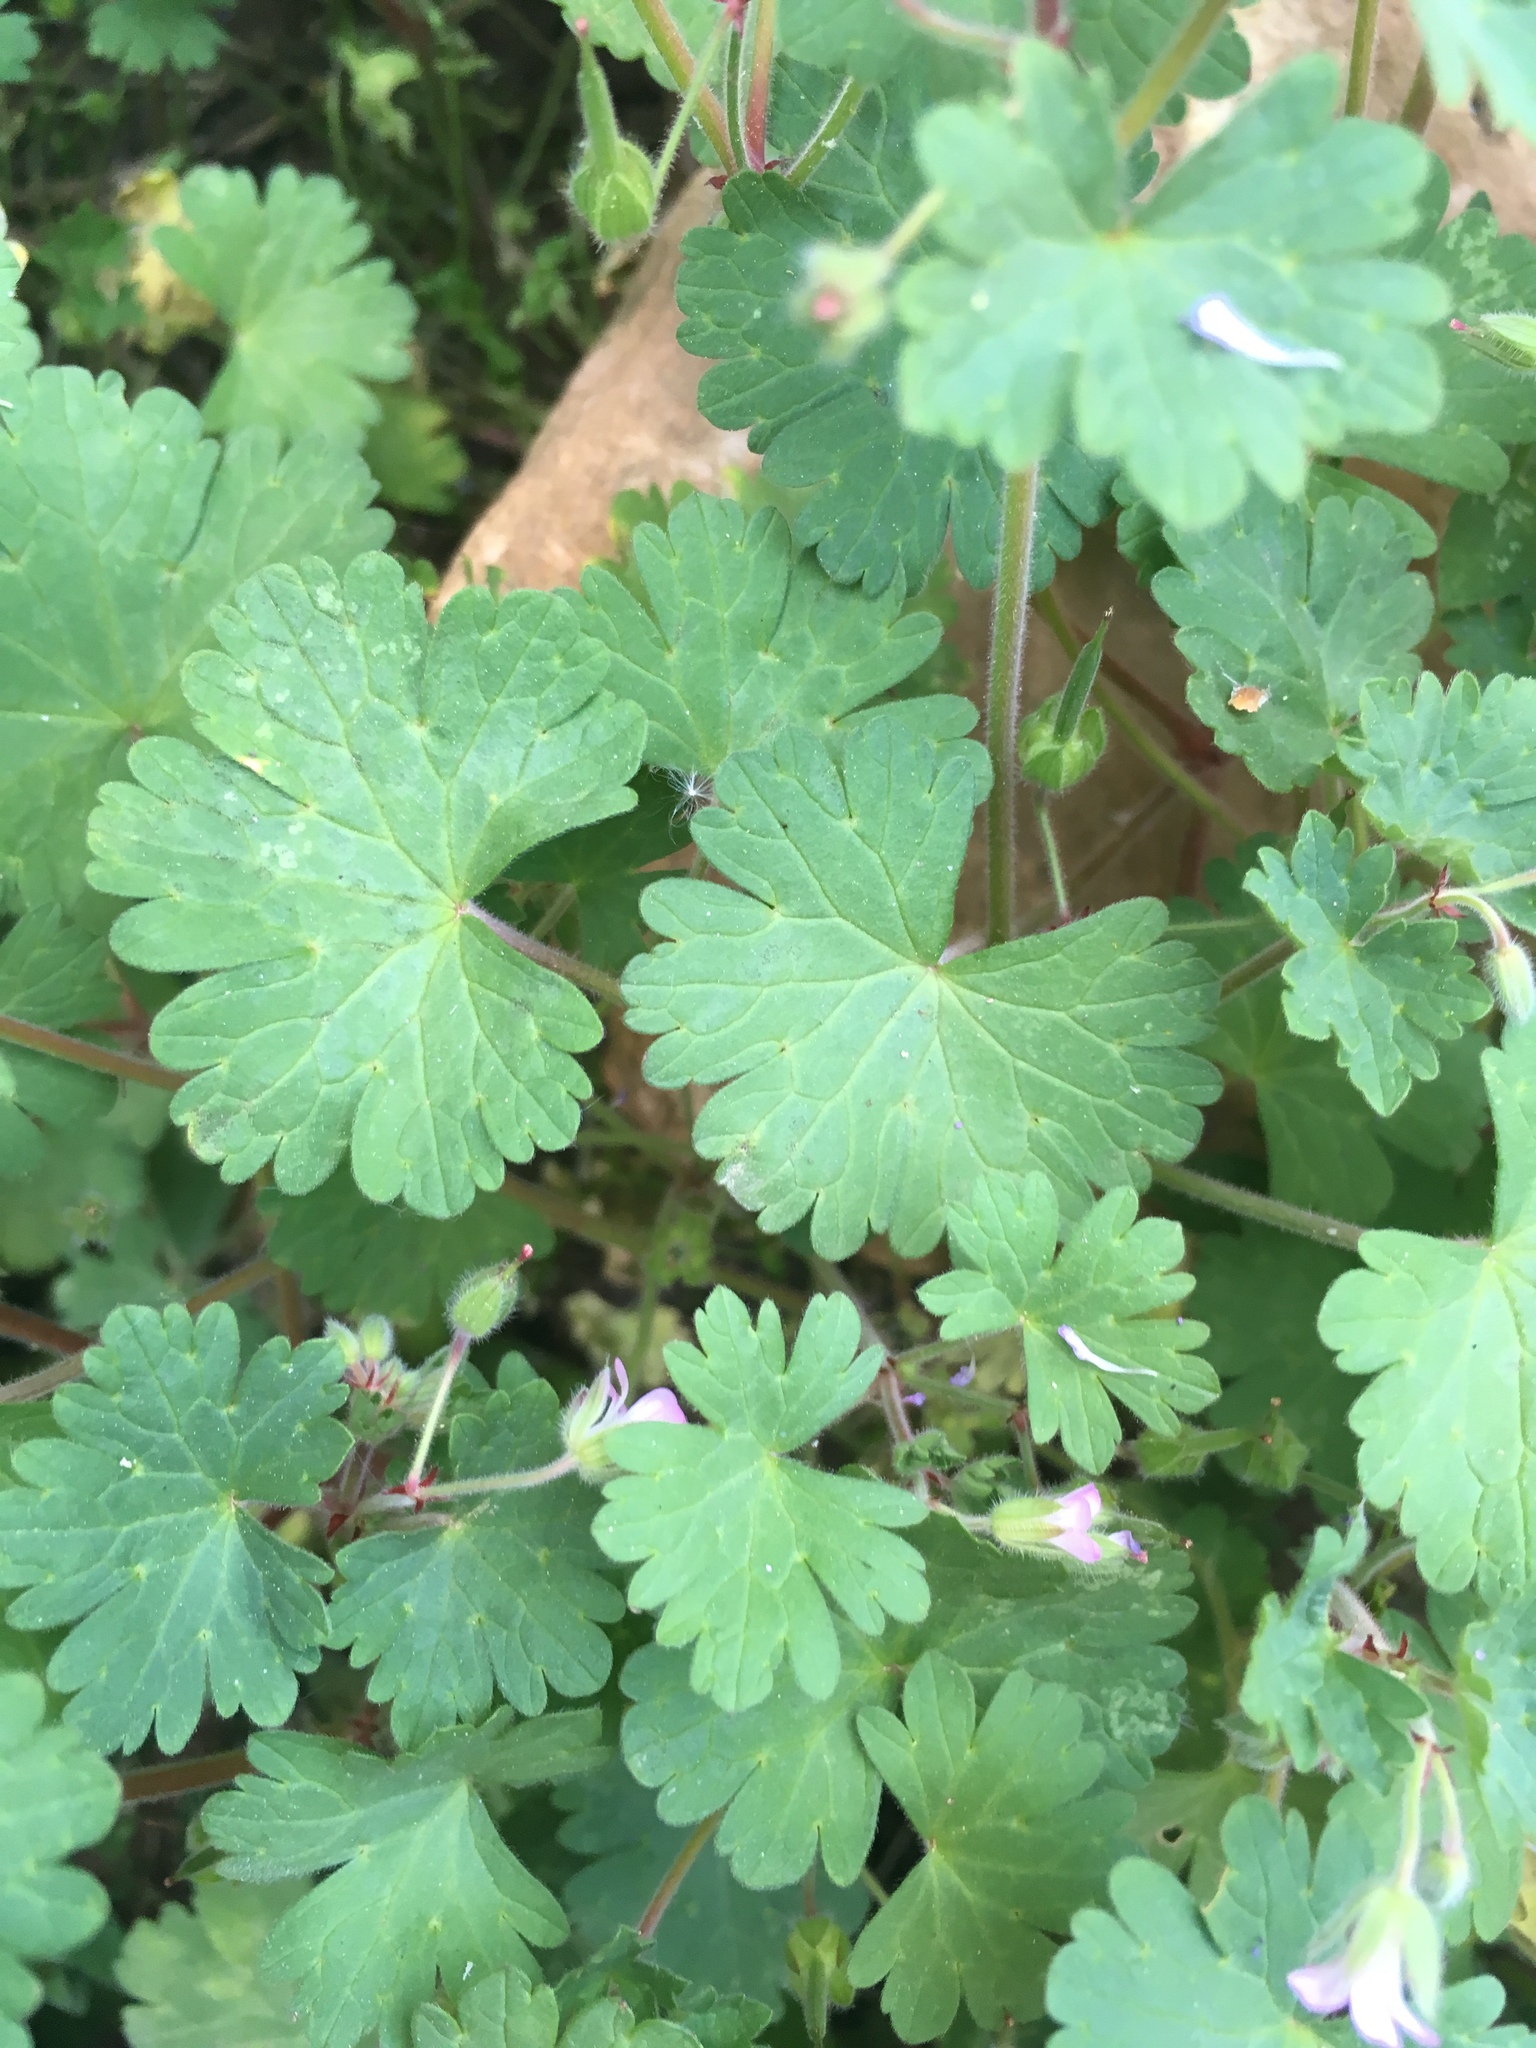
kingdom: Plantae
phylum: Tracheophyta
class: Magnoliopsida
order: Geraniales
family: Geraniaceae
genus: Geranium
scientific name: Geranium rotundifolium
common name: Round-leaved crane's-bill
